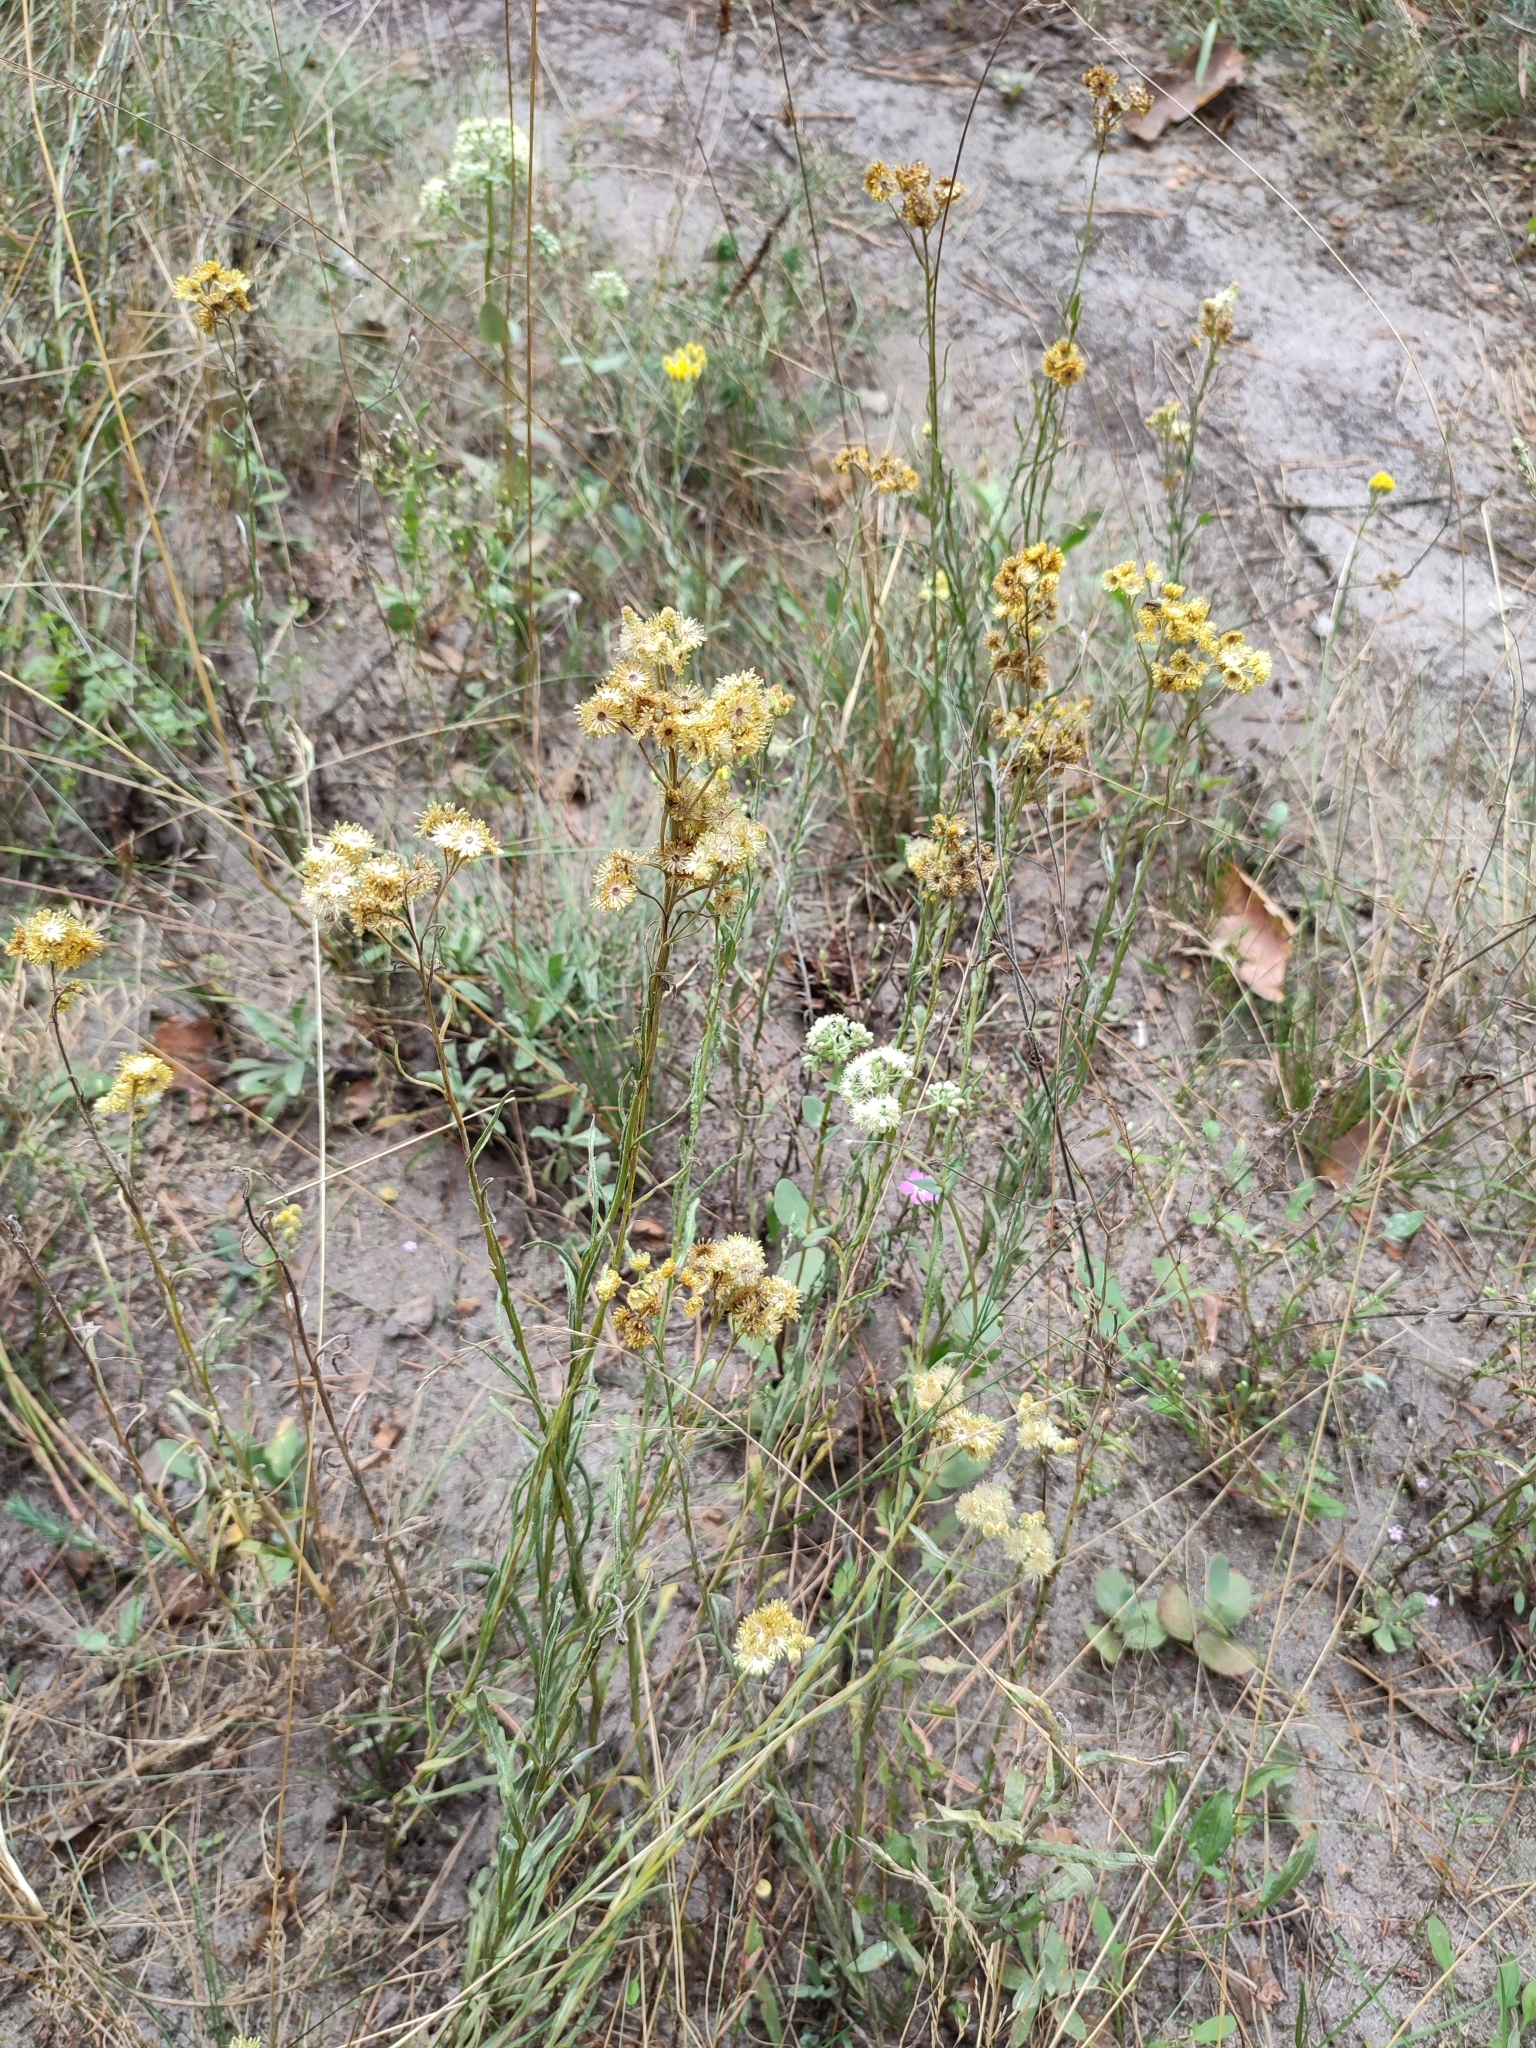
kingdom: Plantae
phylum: Tracheophyta
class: Magnoliopsida
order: Asterales
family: Asteraceae
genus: Helichrysum
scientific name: Helichrysum arenarium
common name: Strawflower
